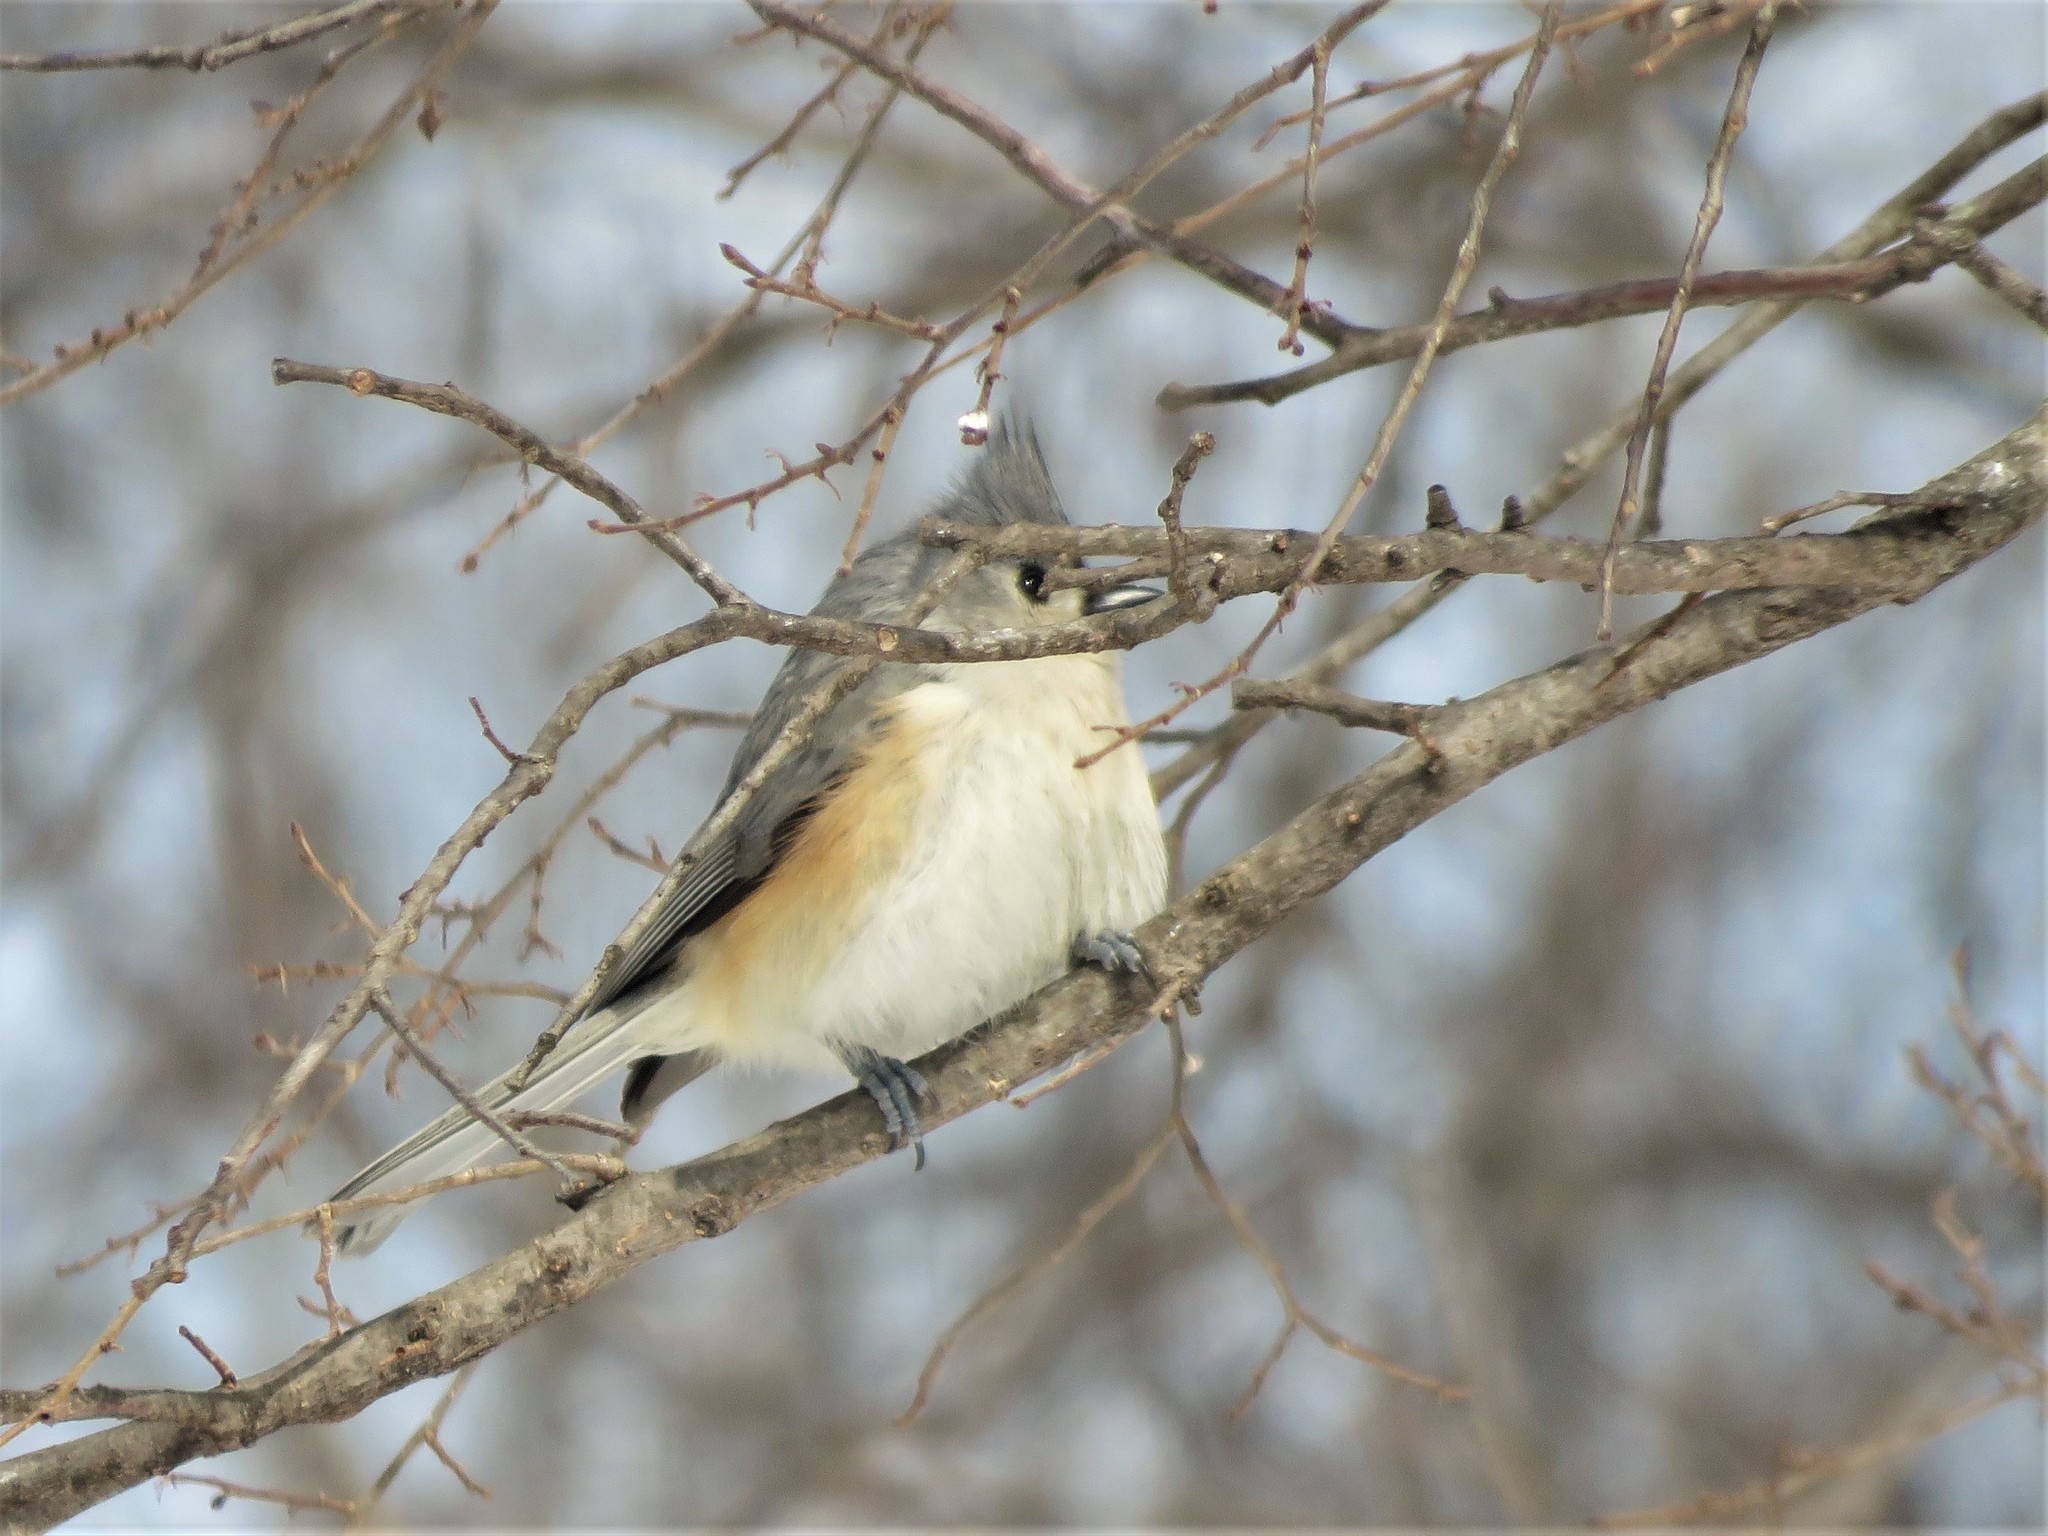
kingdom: Animalia
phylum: Chordata
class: Aves
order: Passeriformes
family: Paridae
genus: Baeolophus
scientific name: Baeolophus bicolor
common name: Tufted titmouse
